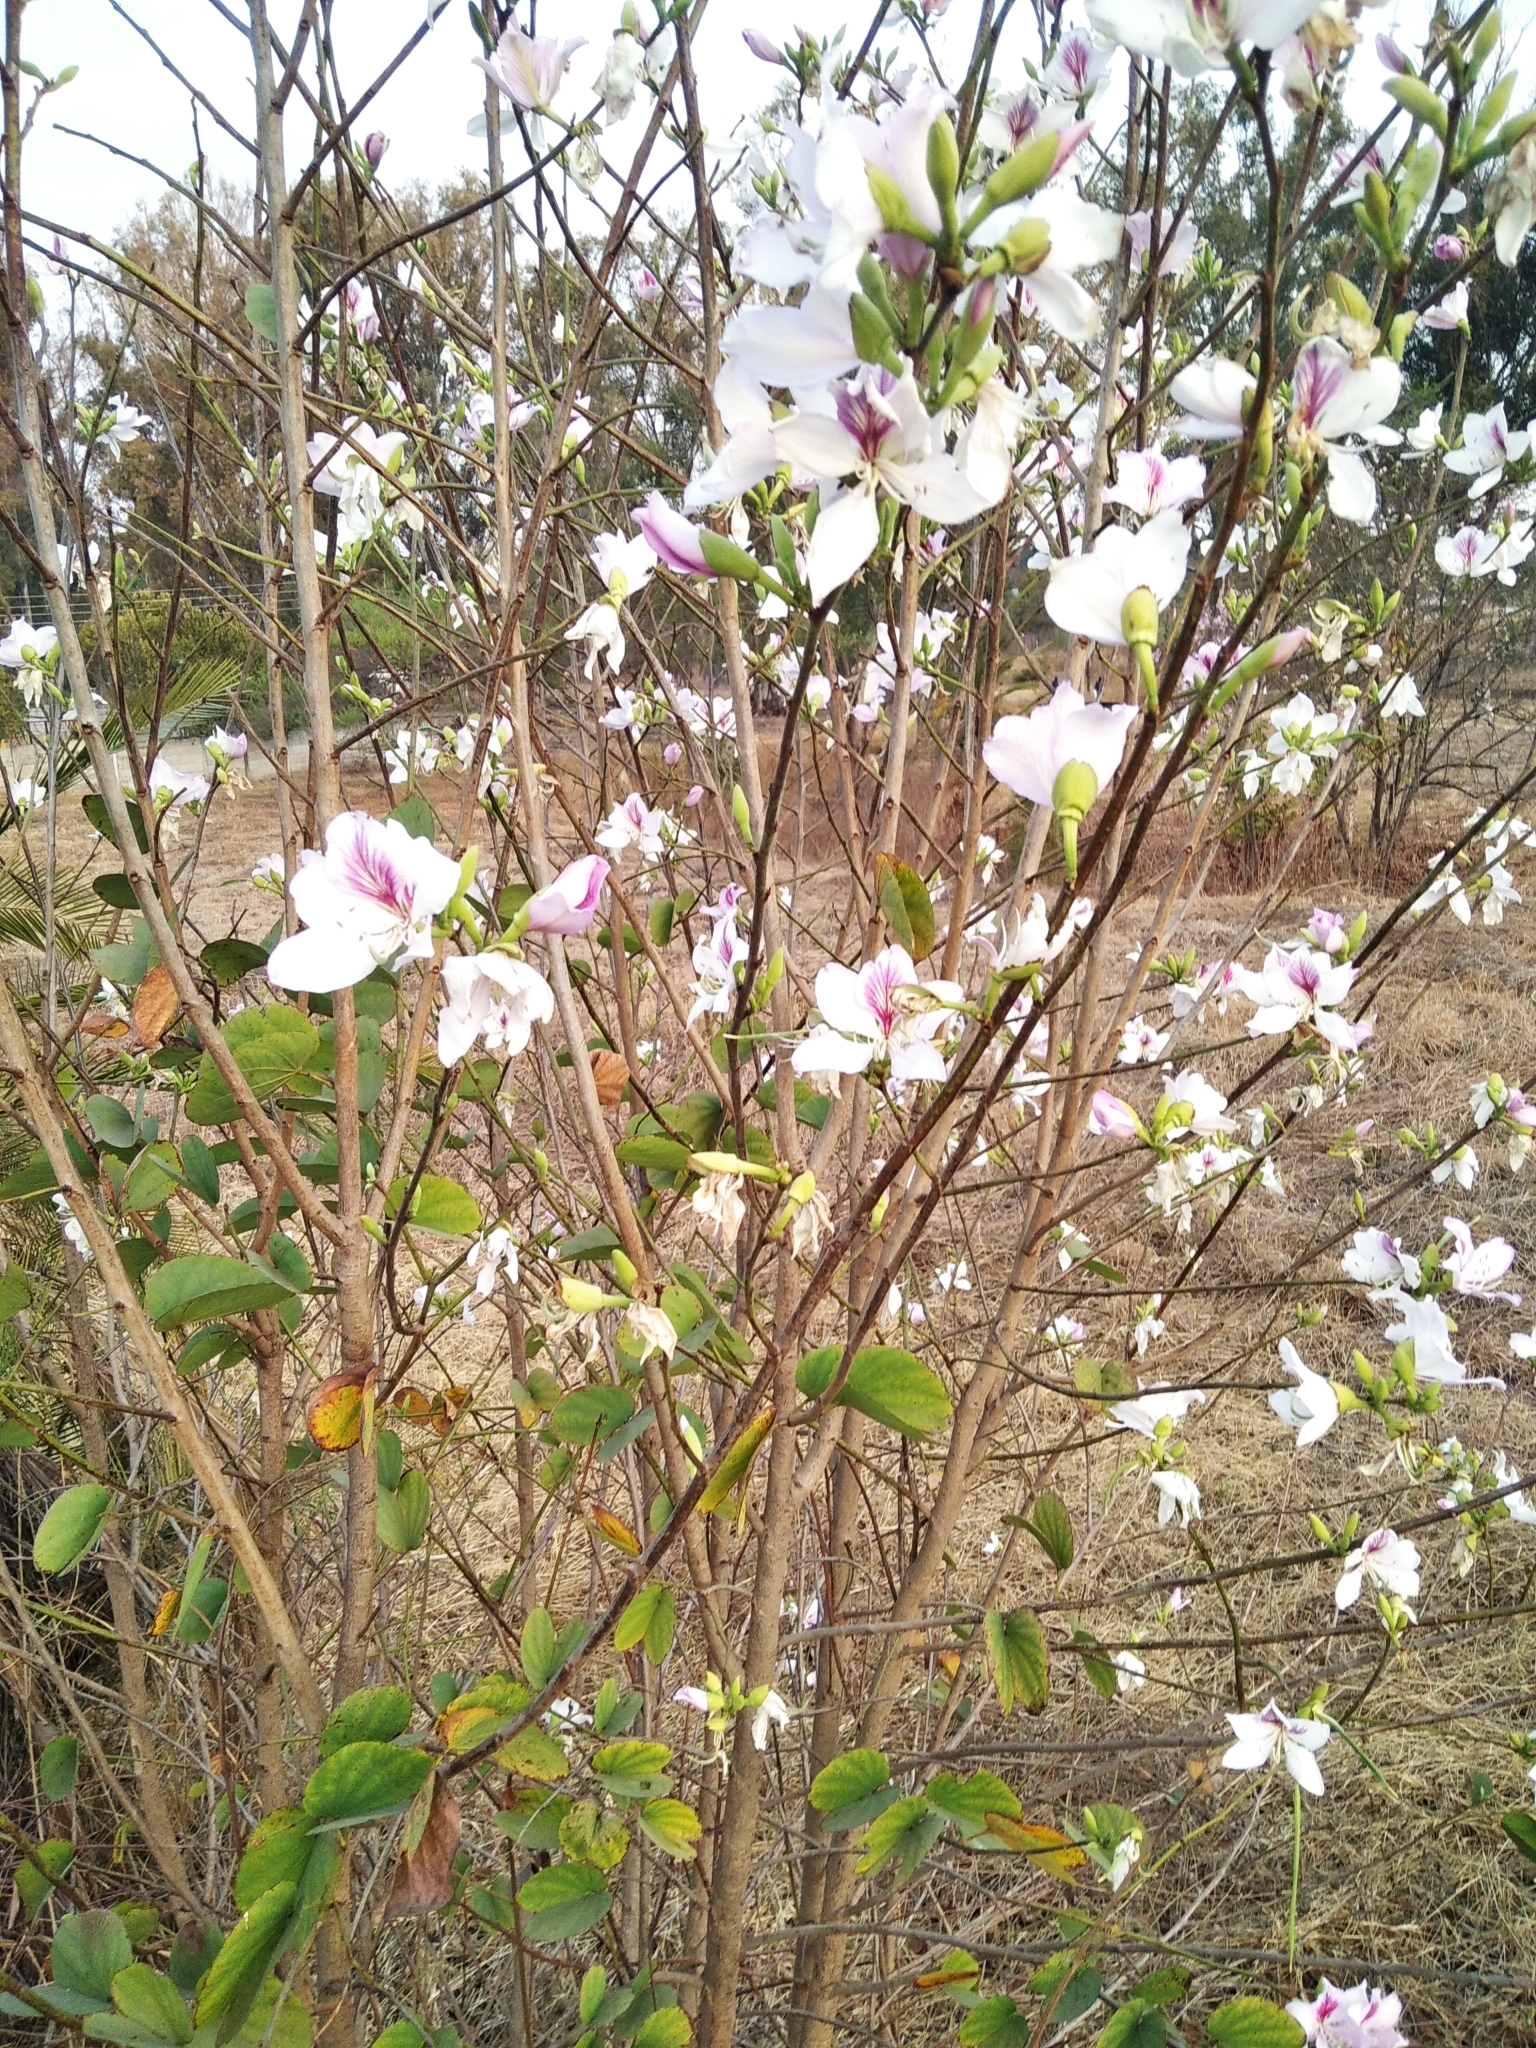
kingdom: Plantae
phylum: Tracheophyta
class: Magnoliopsida
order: Fabales
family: Fabaceae
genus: Bauhinia
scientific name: Bauhinia variegata
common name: Mountain ebony
